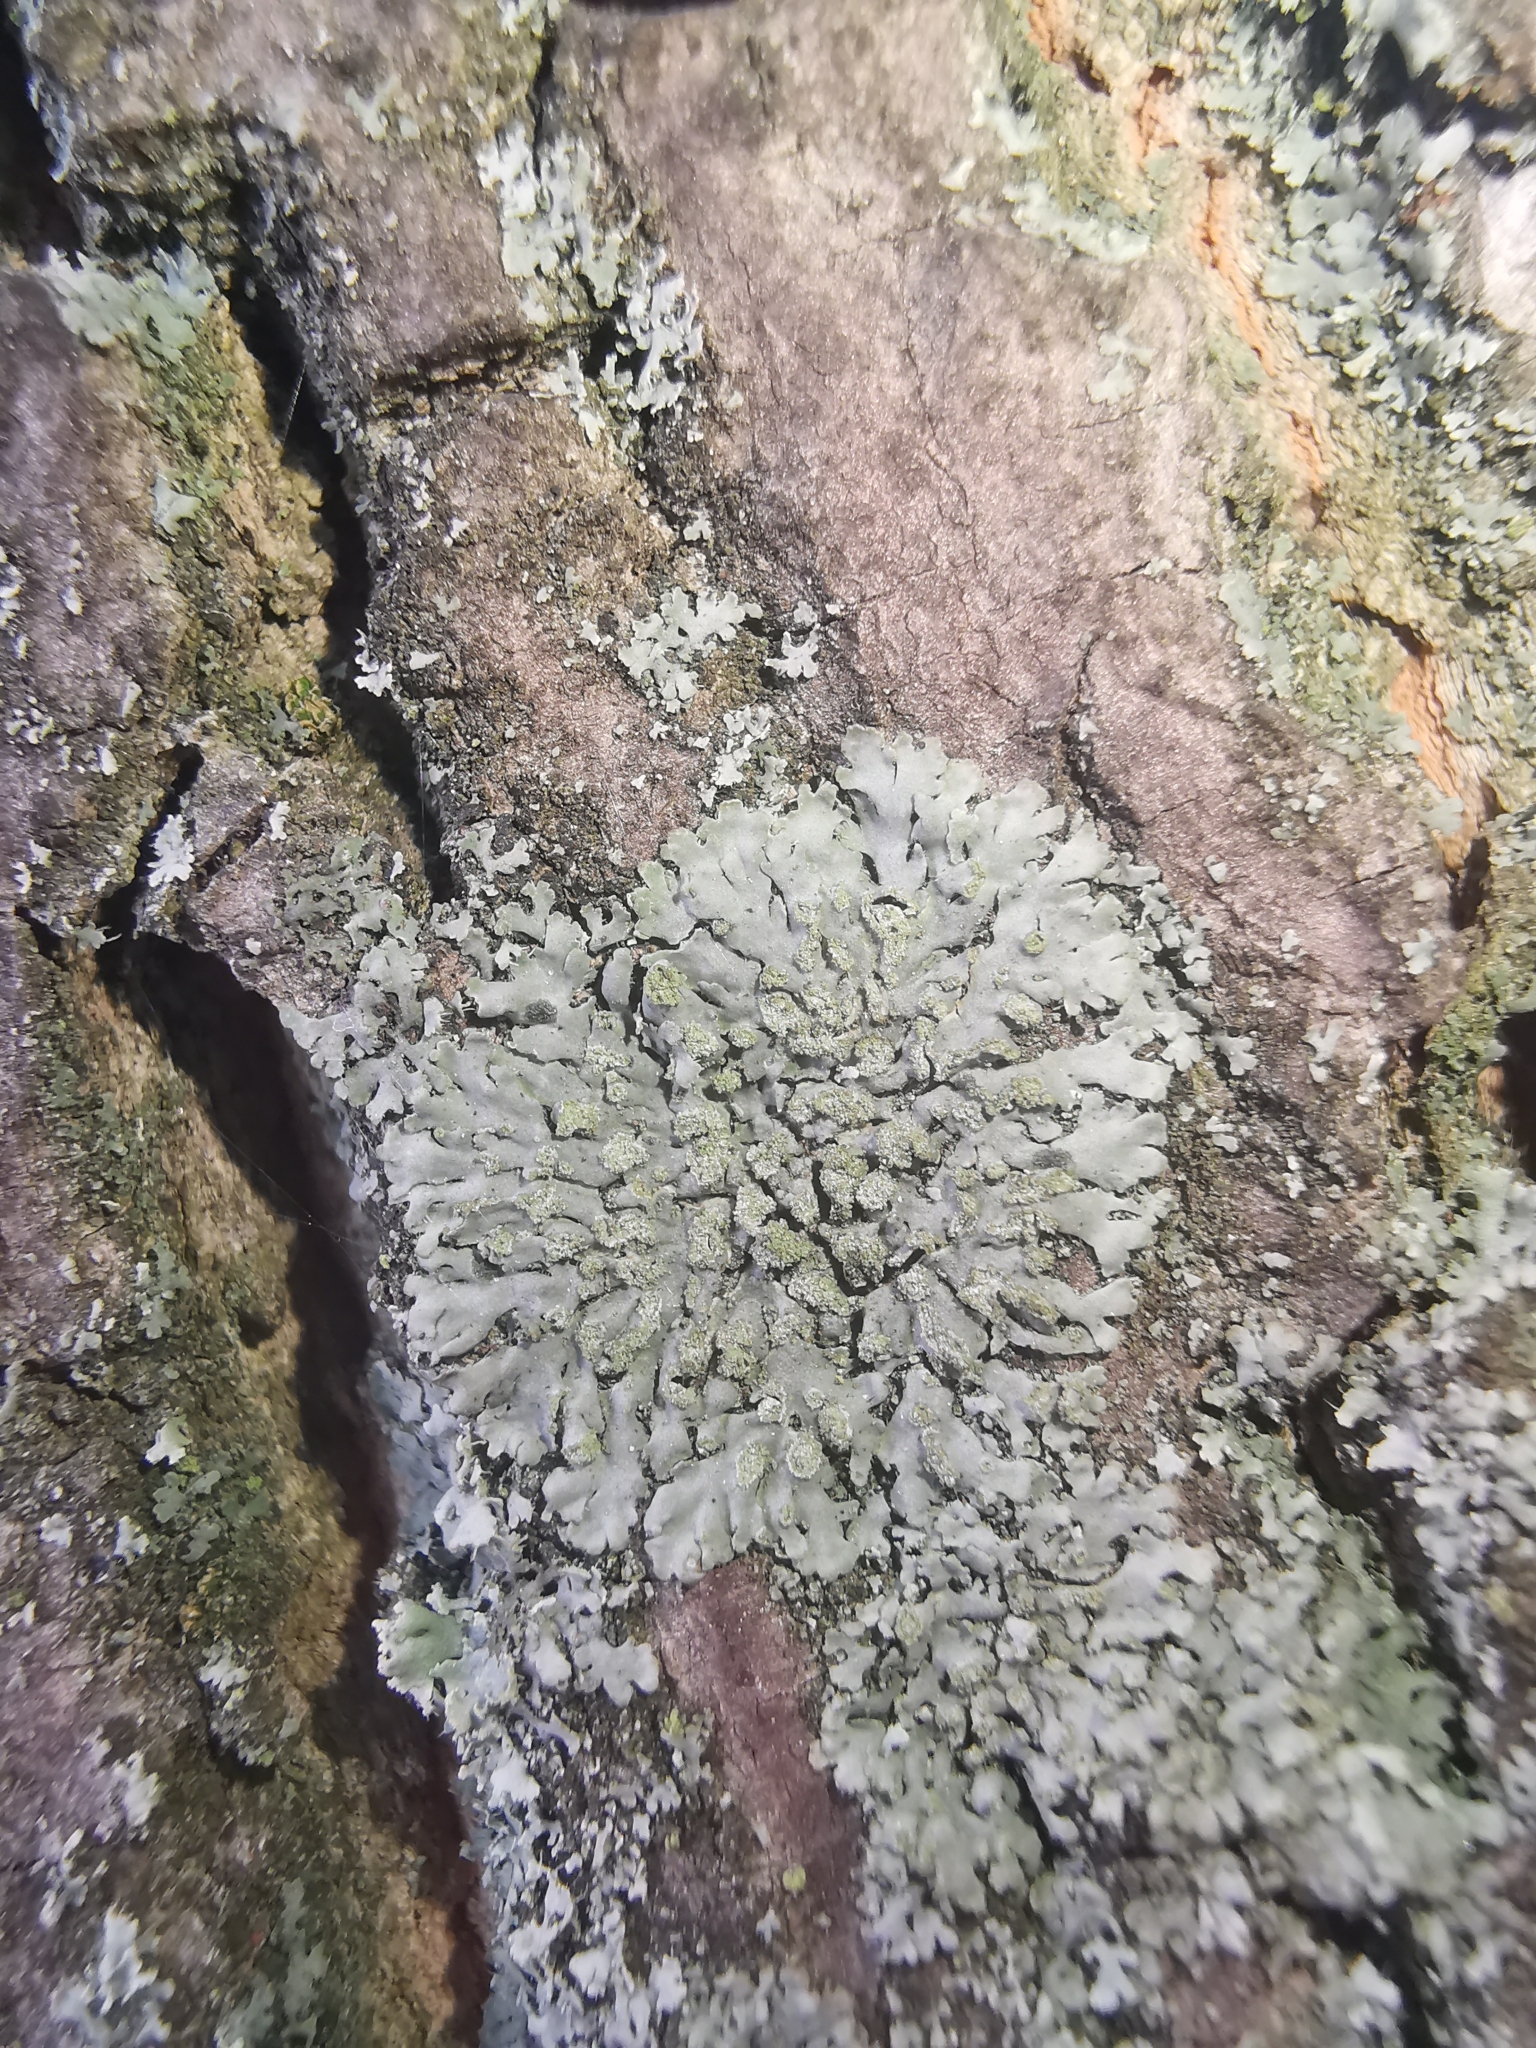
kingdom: Fungi
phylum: Ascomycota
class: Lecanoromycetes
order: Caliciales
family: Physciaceae
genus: Phaeophyscia
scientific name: Phaeophyscia orbicularis
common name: Mealy shadow lichen
